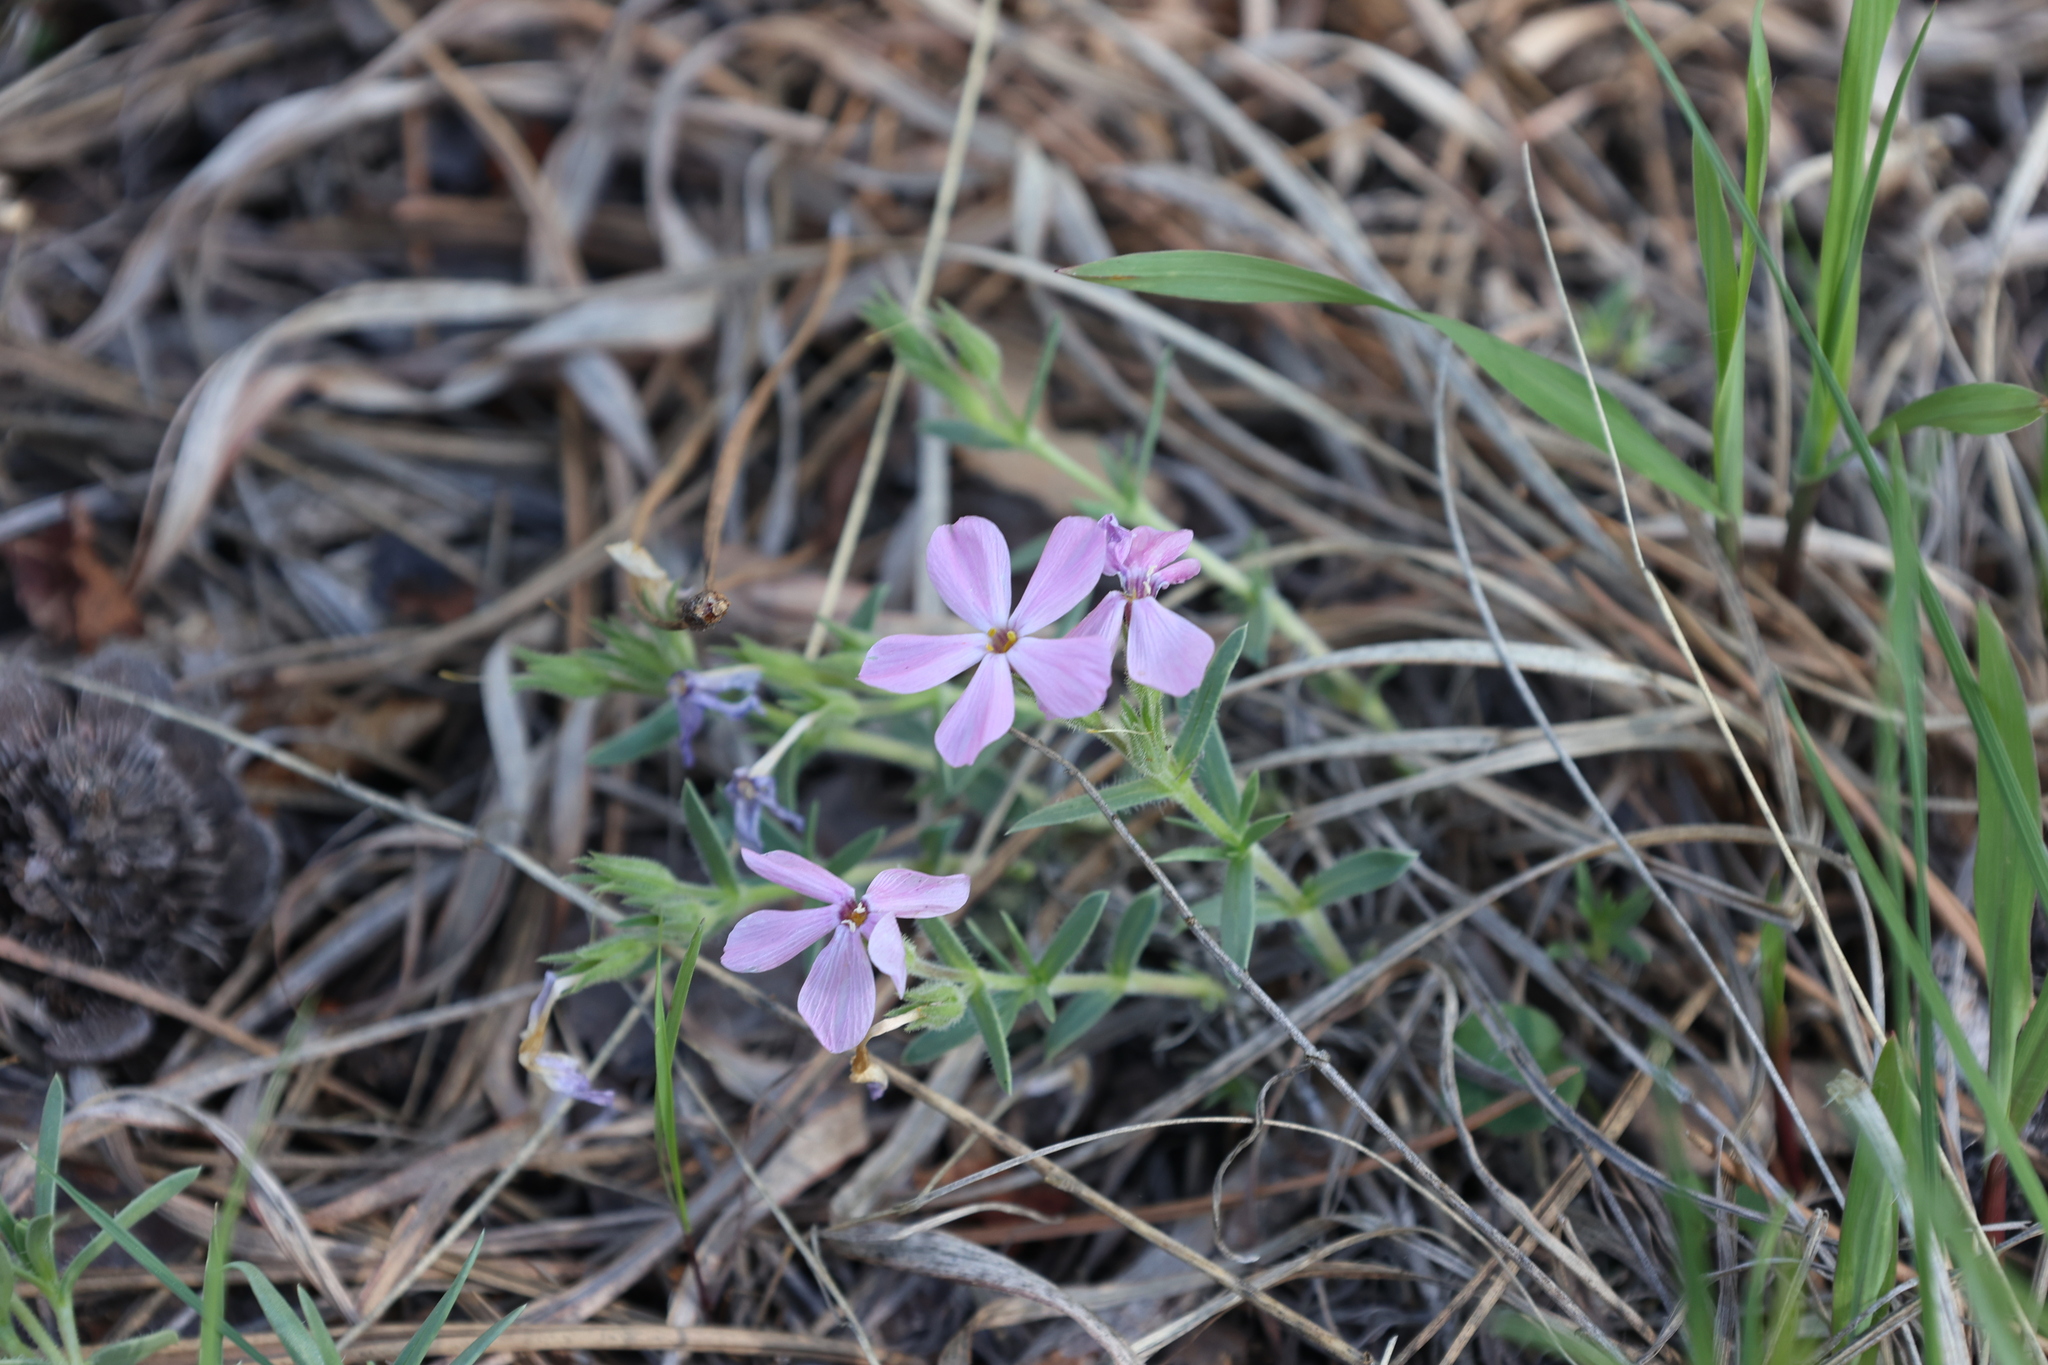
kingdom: Plantae
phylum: Tracheophyta
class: Magnoliopsida
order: Ericales
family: Polemoniaceae
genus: Phlox
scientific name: Phlox alyssifolia
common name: Blue phlox
